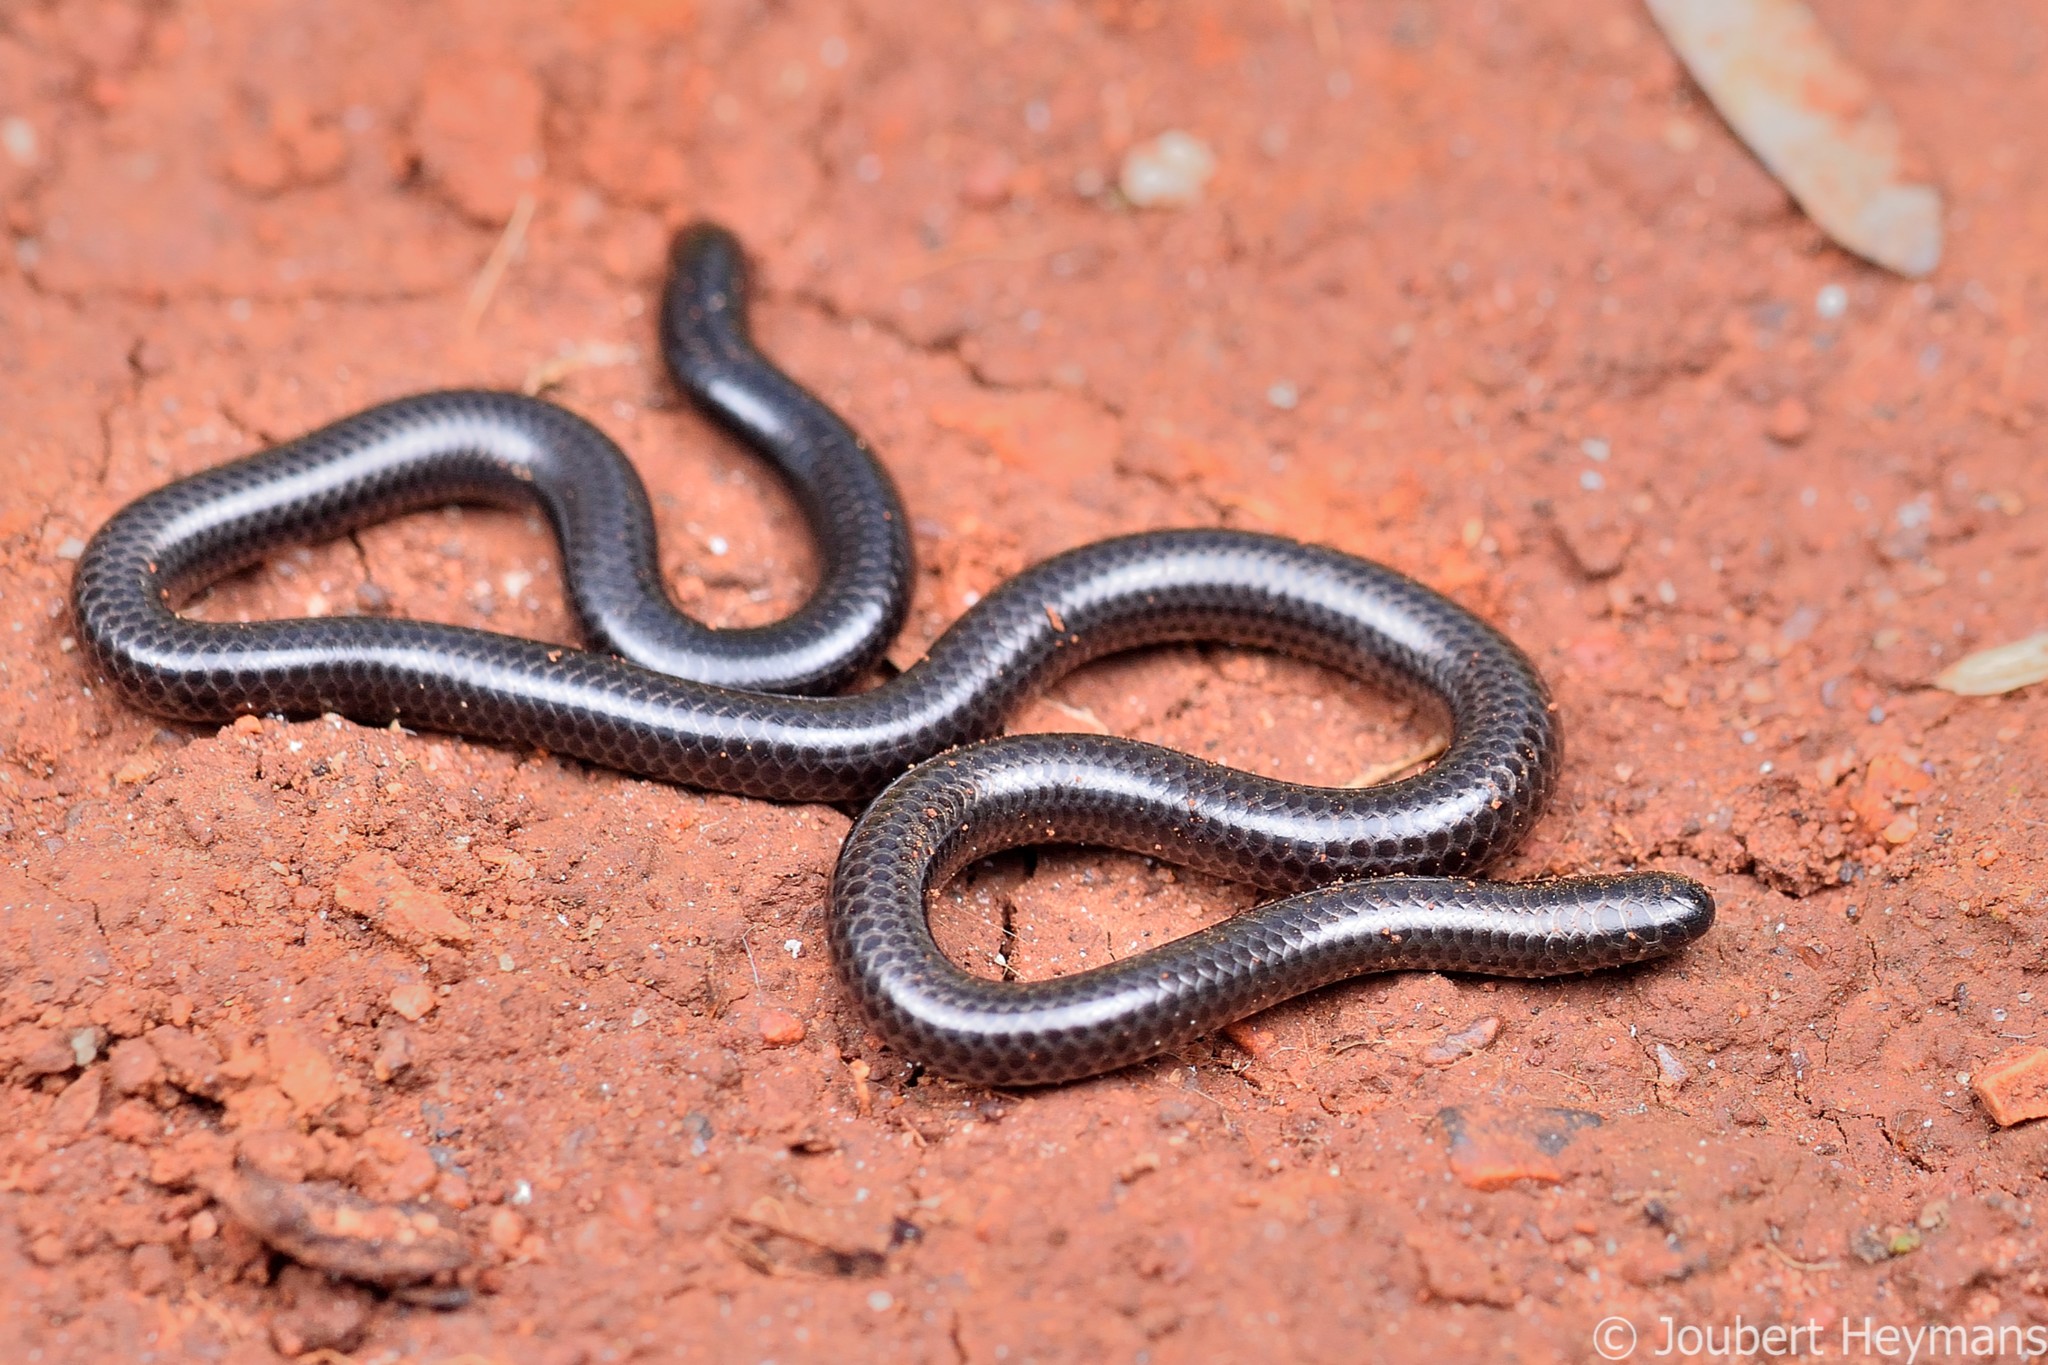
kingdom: Animalia
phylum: Chordata
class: Squamata
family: Leptotyphlopidae
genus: Leptotyphlops
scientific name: Leptotyphlops jacobseni
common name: Jacobsen's thread snake
